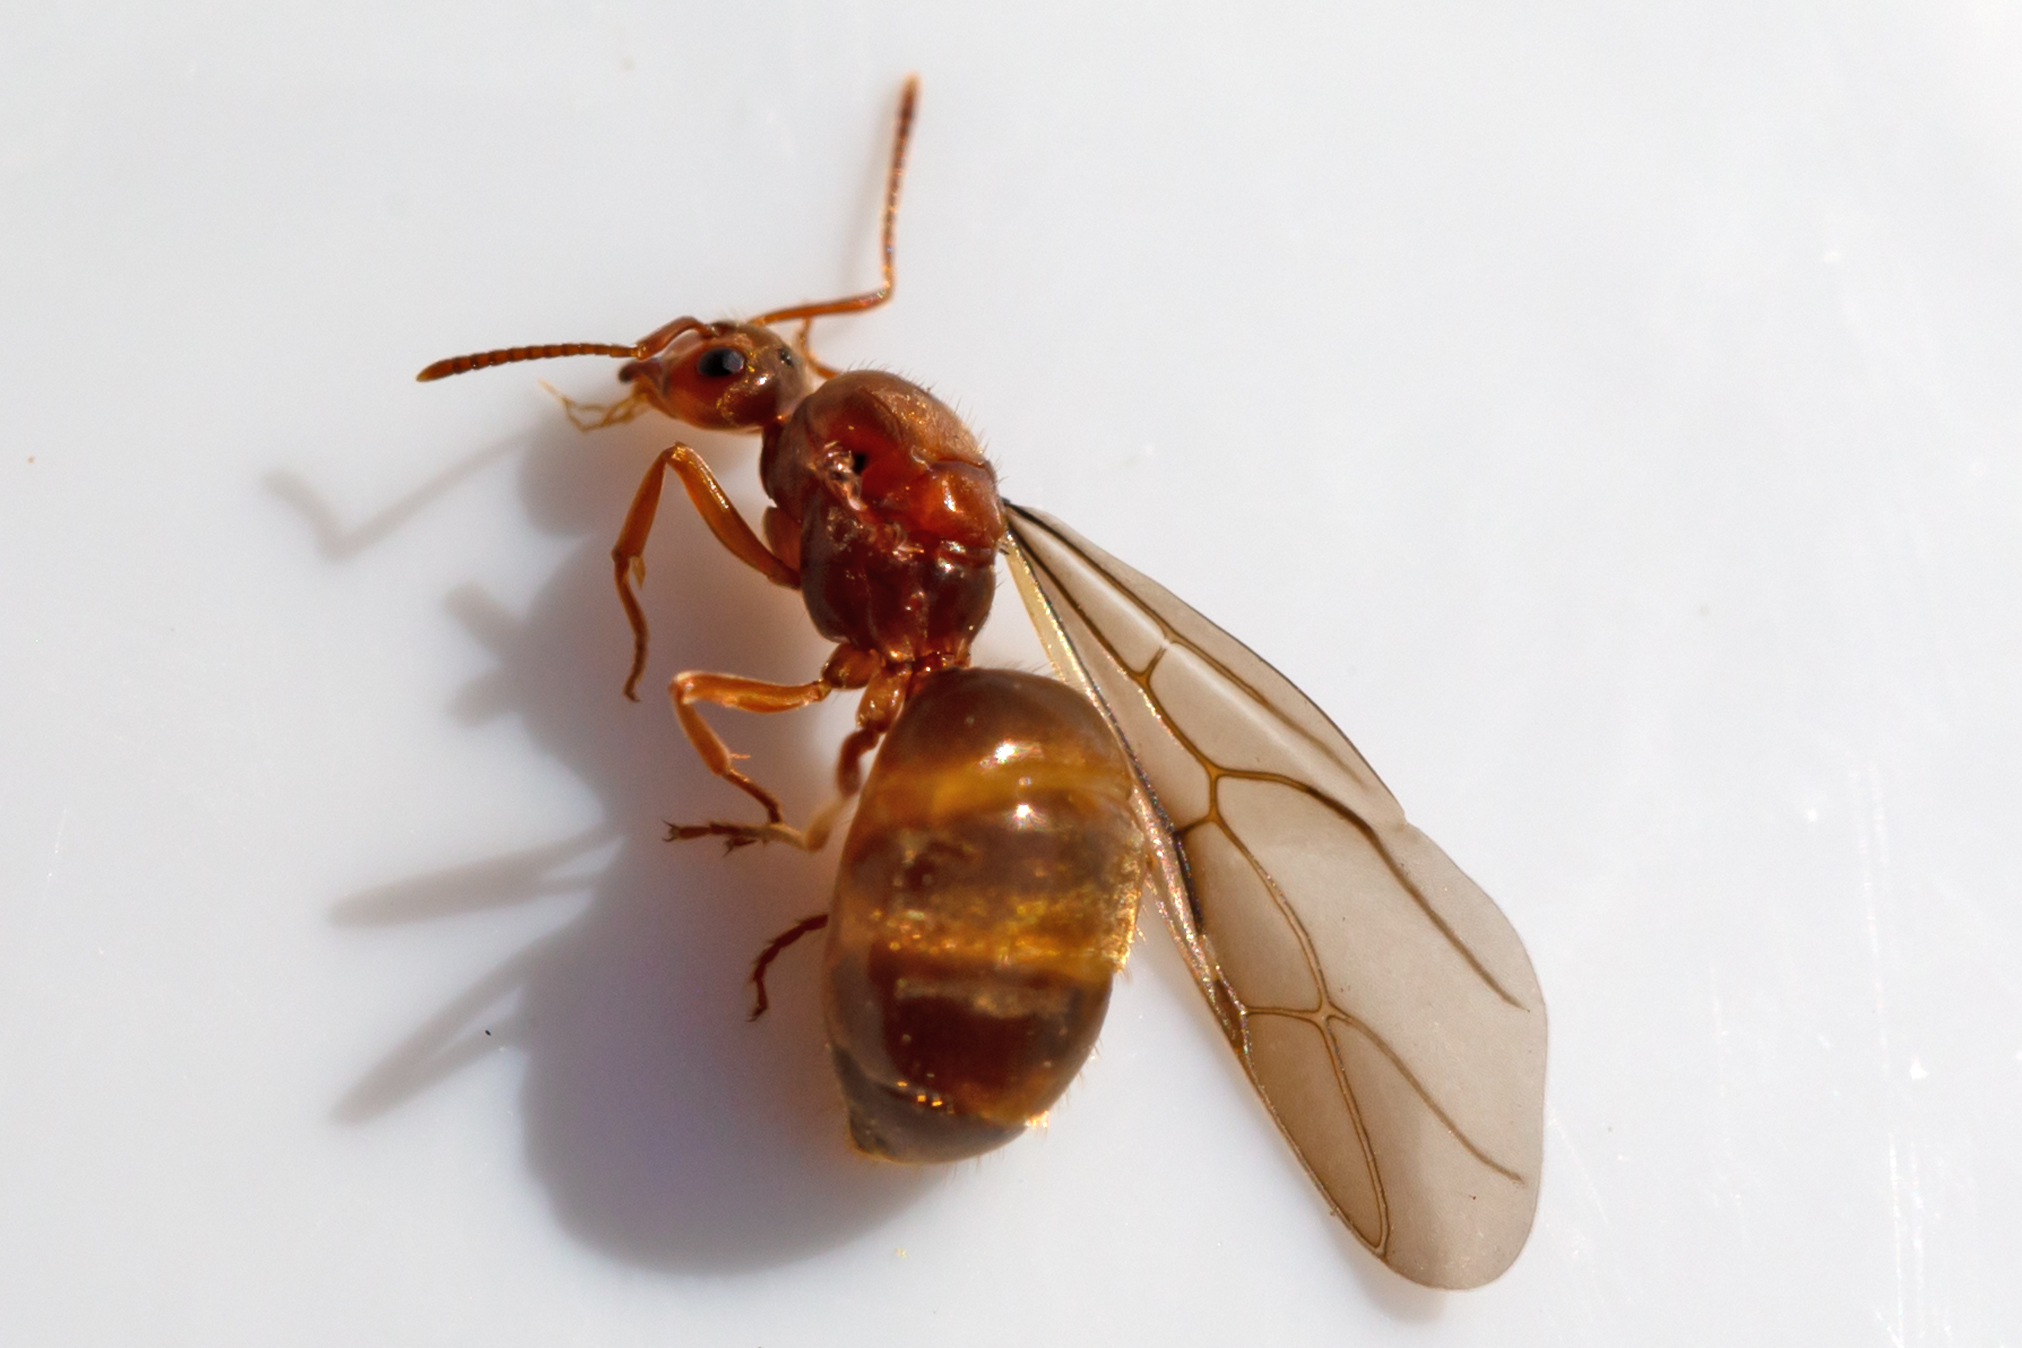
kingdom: Animalia
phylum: Arthropoda
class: Insecta
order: Hymenoptera
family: Formicidae
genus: Prenolepis
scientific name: Prenolepis imparis
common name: Small honey ant
